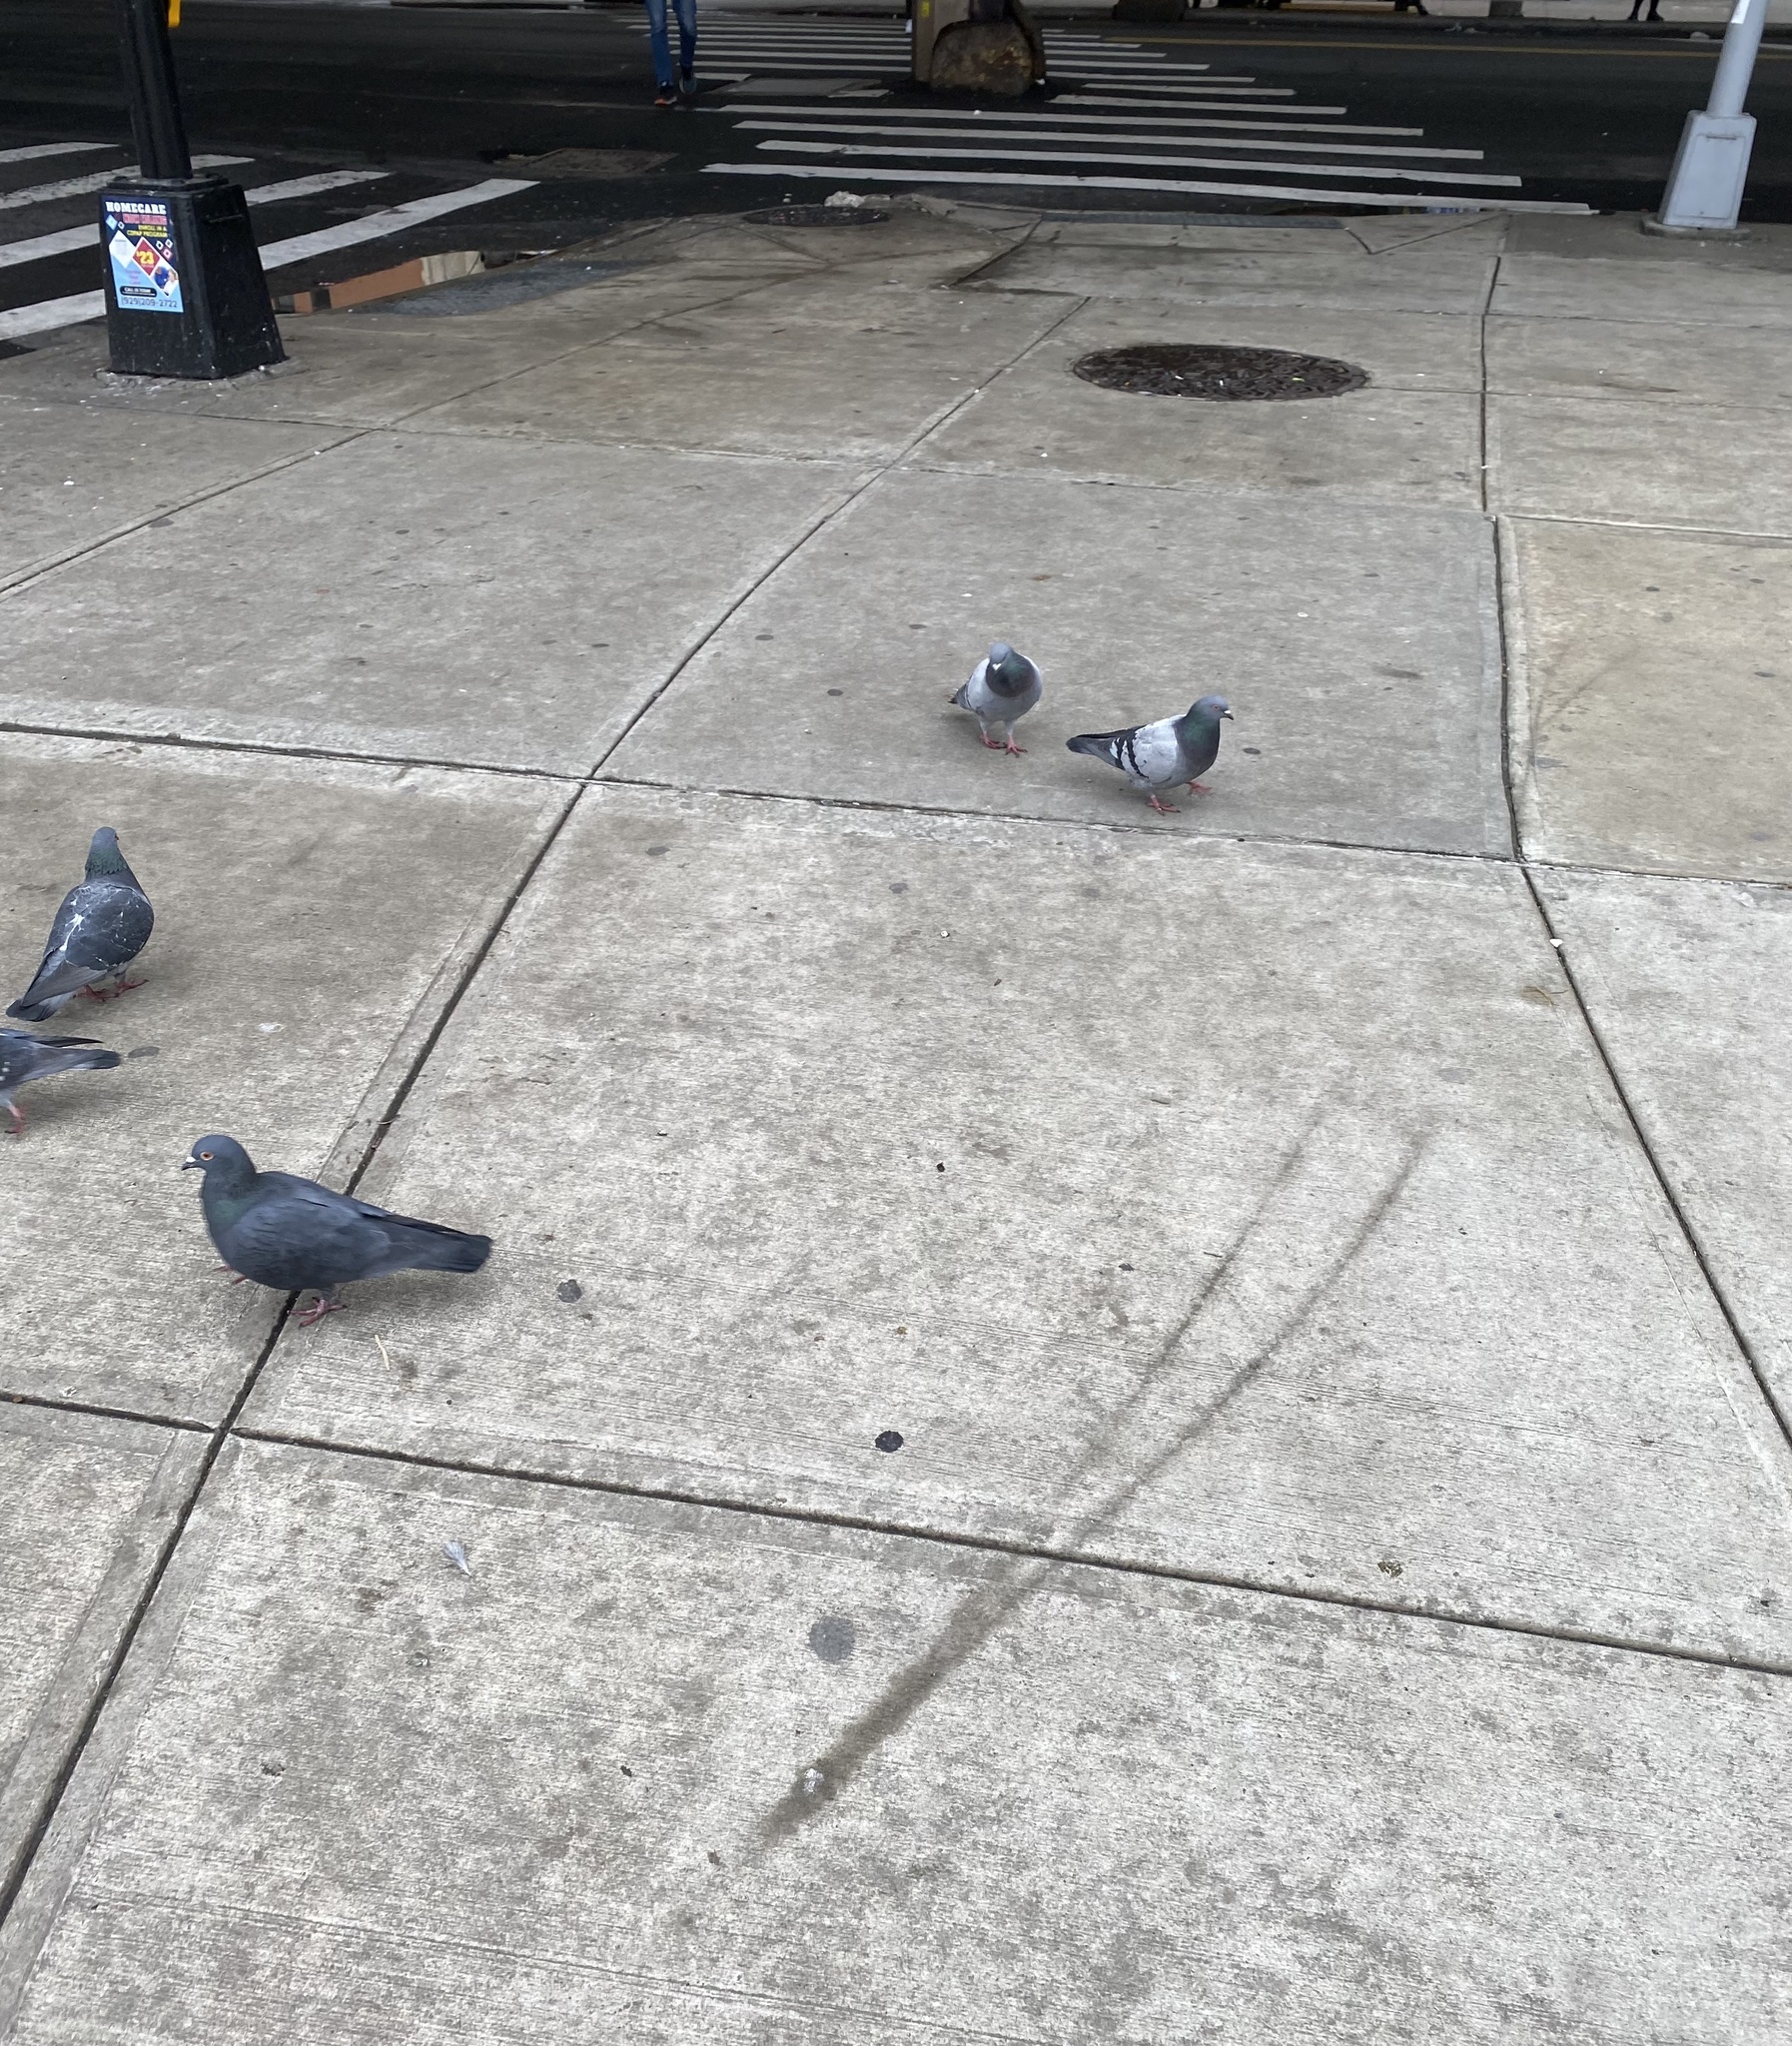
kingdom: Animalia
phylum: Chordata
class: Aves
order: Columbiformes
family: Columbidae
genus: Columba
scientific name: Columba livia
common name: Rock pigeon
